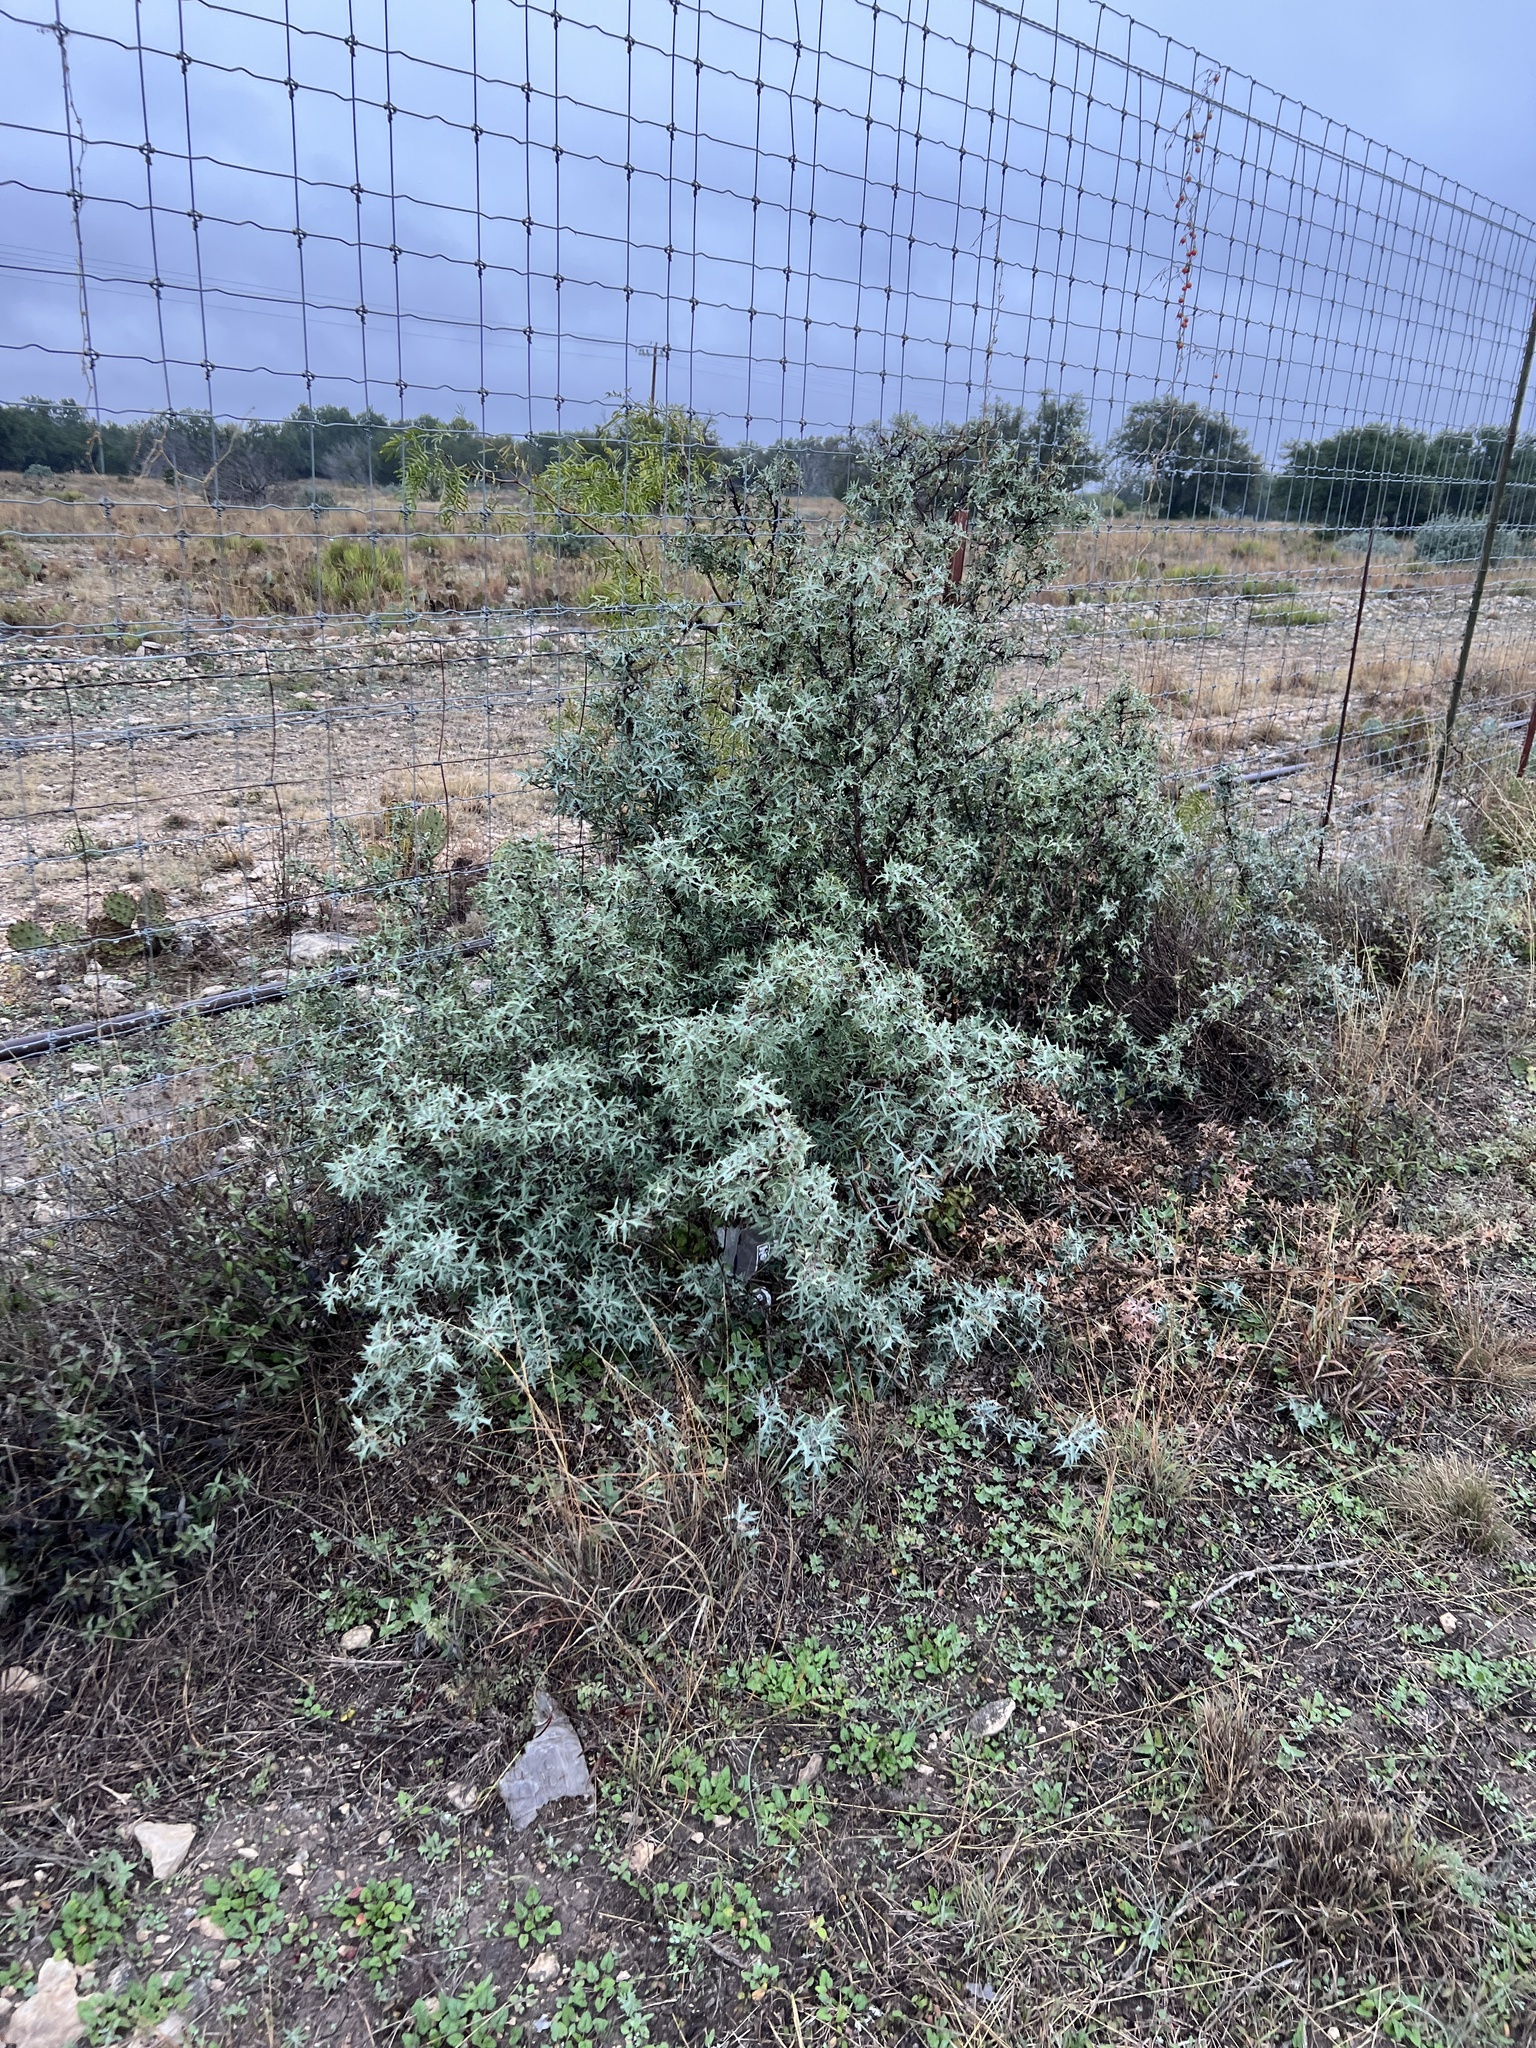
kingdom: Plantae
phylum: Tracheophyta
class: Magnoliopsida
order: Ranunculales
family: Berberidaceae
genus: Alloberberis
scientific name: Alloberberis trifoliolata
